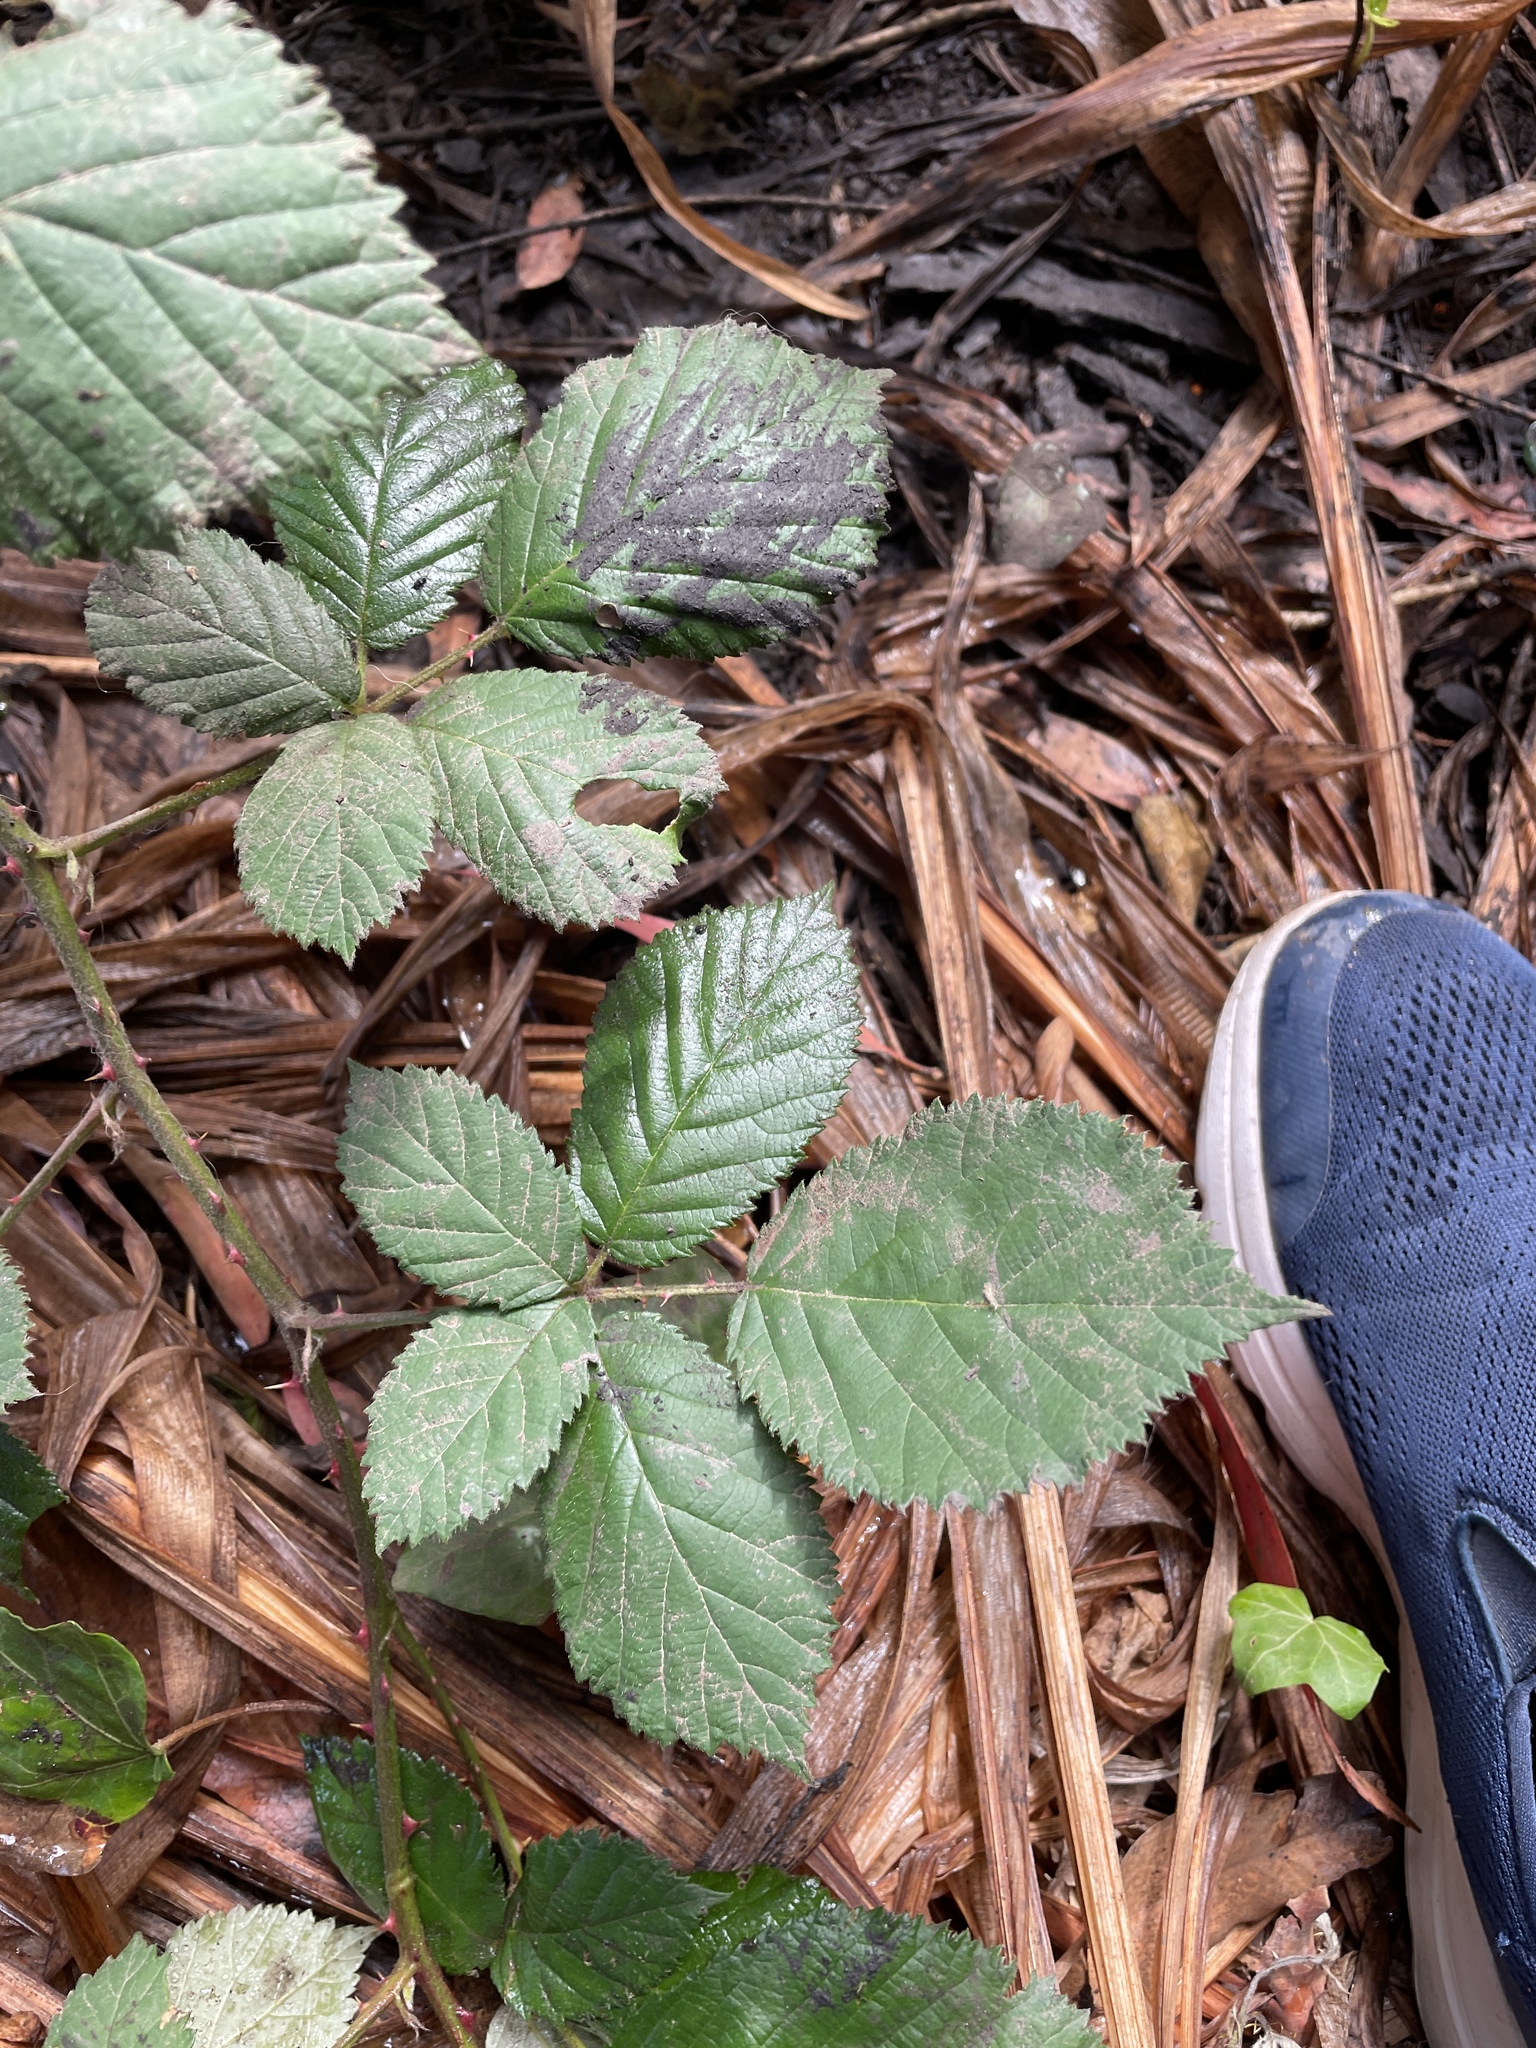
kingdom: Plantae
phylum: Tracheophyta
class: Magnoliopsida
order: Rosales
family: Rosaceae
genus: Rubus
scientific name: Rubus armeniacus
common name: Himalayan blackberry
